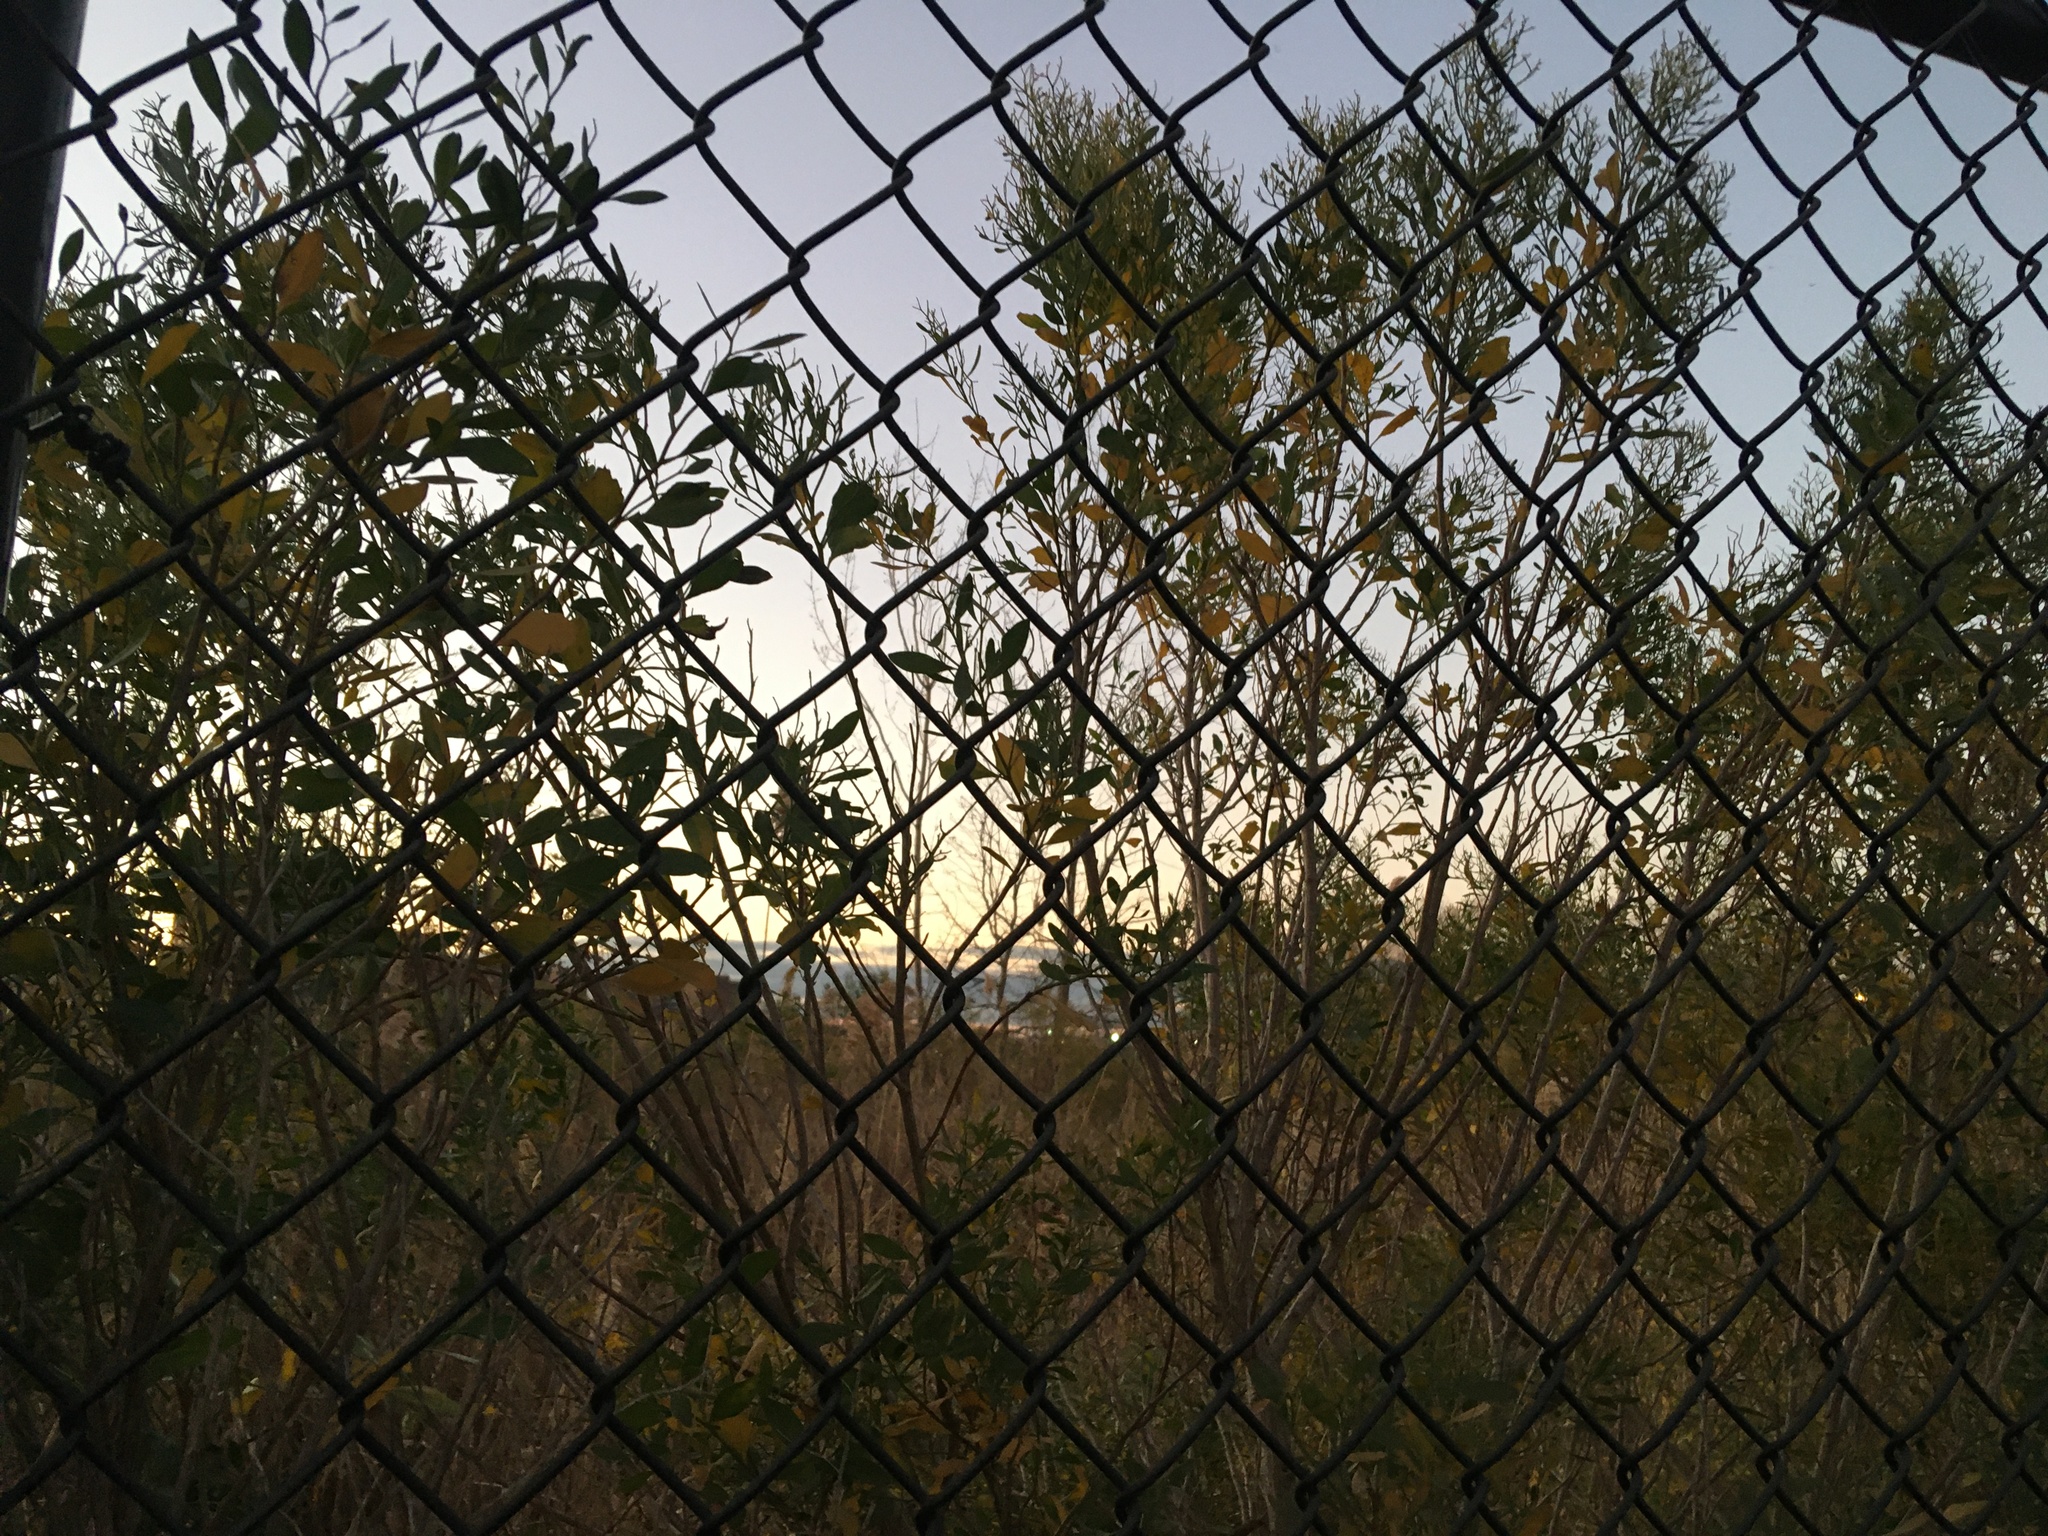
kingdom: Plantae
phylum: Tracheophyta
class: Magnoliopsida
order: Asterales
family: Asteraceae
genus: Baccharis
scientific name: Baccharis halimifolia
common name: Eastern baccharis
